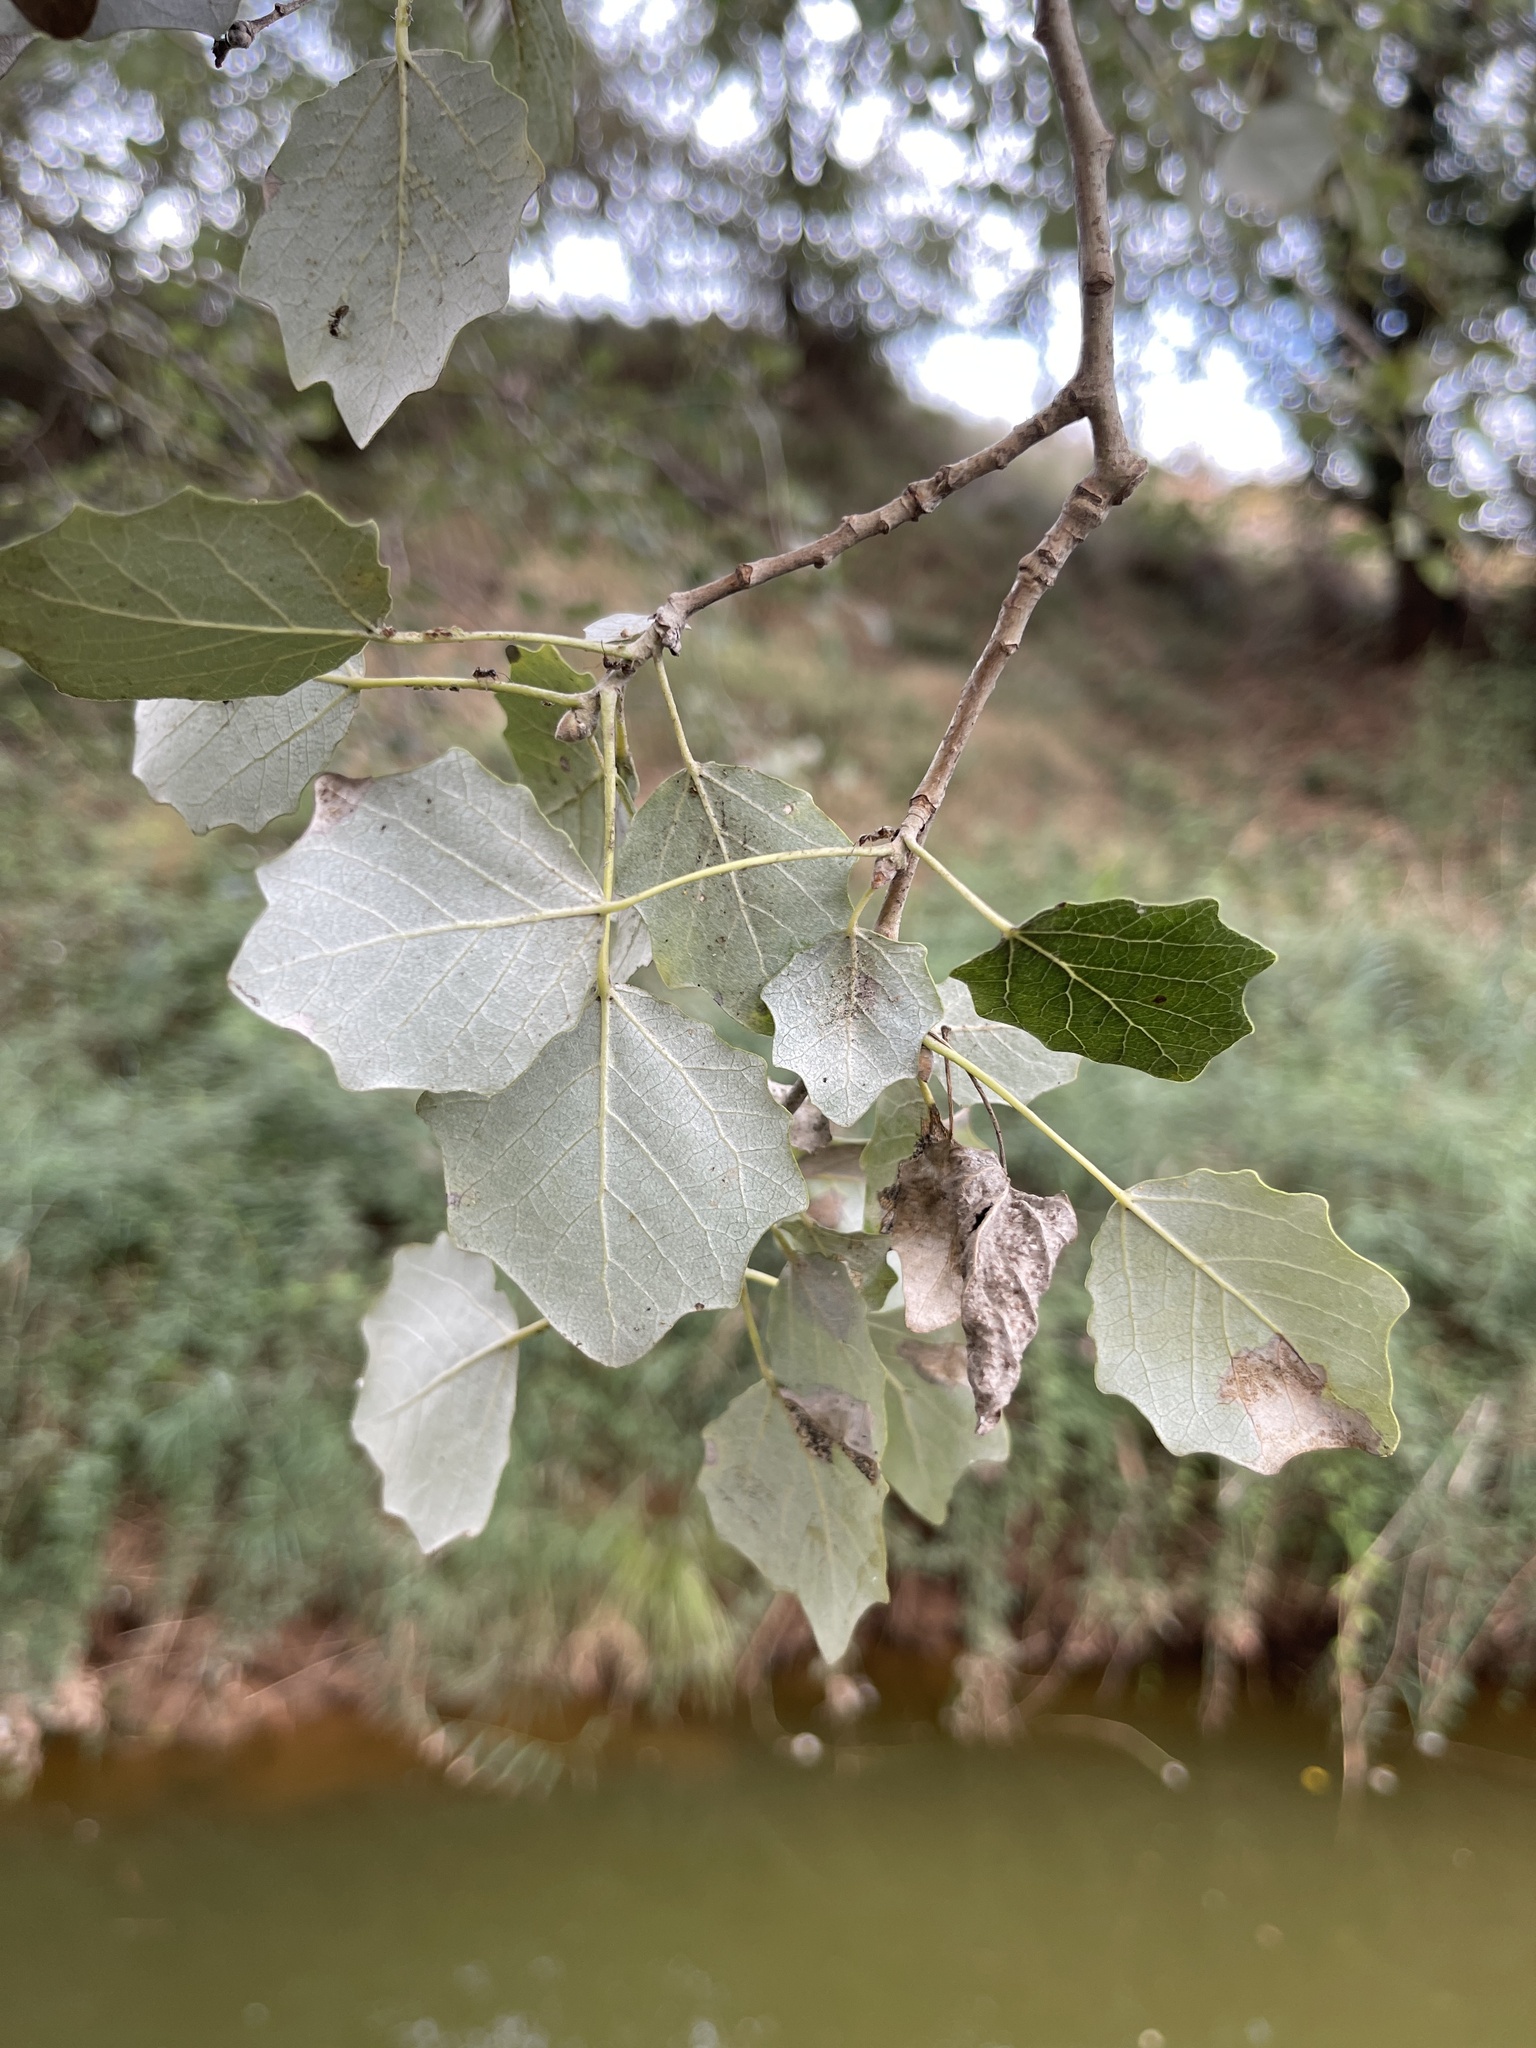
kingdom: Plantae
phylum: Tracheophyta
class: Magnoliopsida
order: Malpighiales
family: Salicaceae
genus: Populus
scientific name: Populus alba
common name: White poplar
